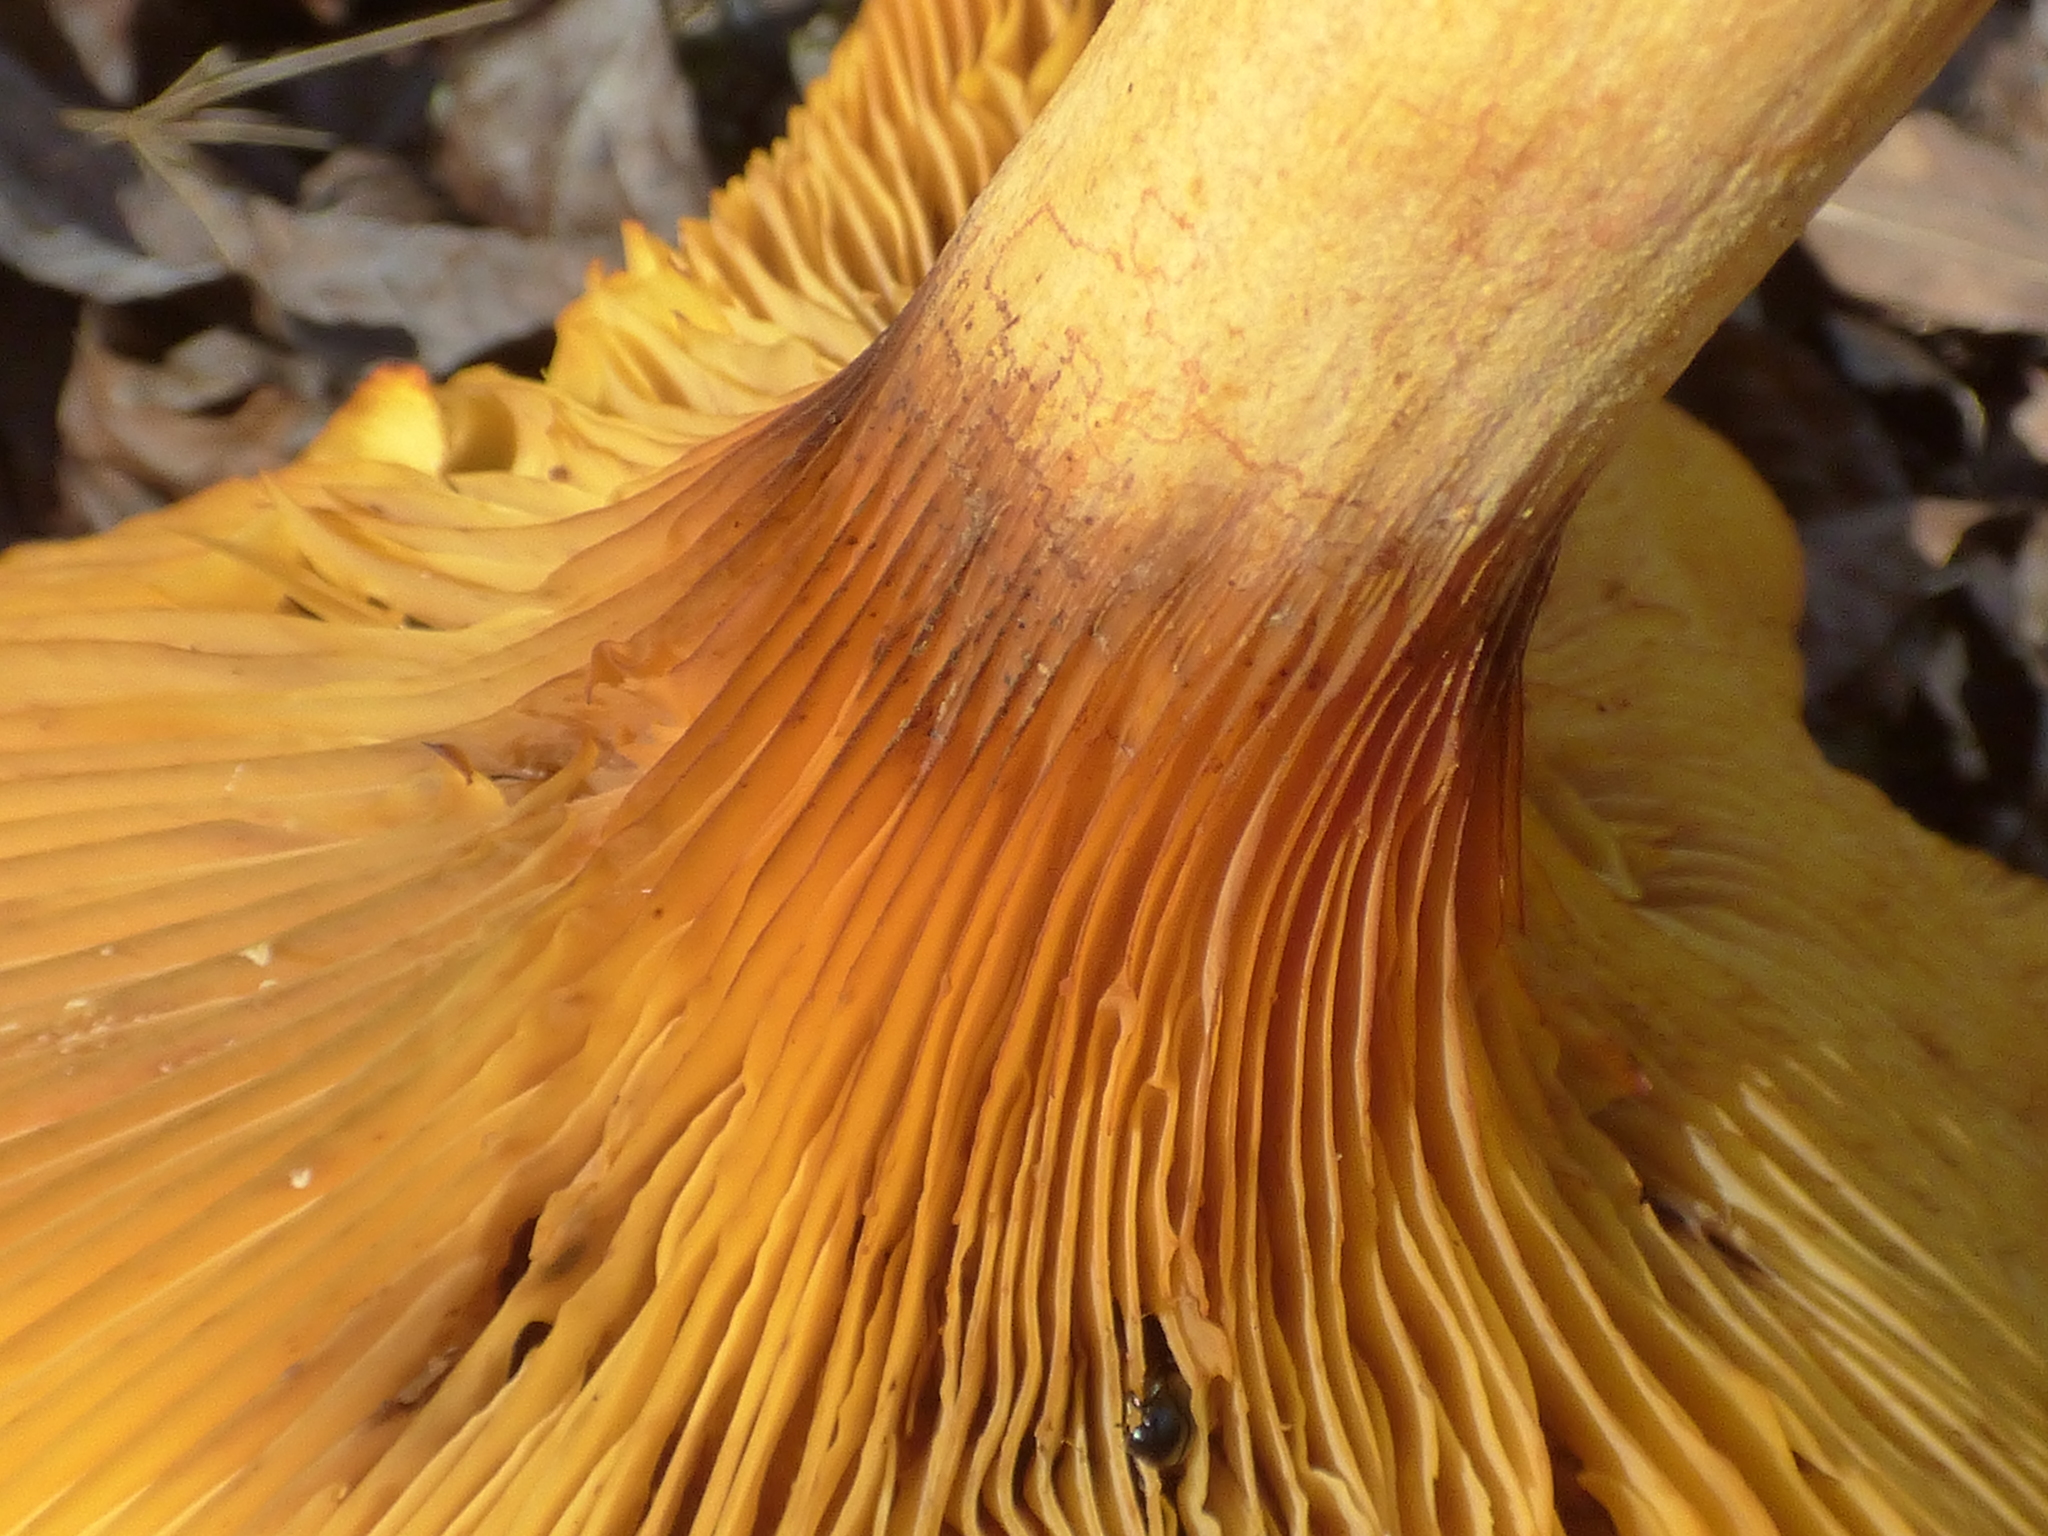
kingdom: Fungi
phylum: Basidiomycota
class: Agaricomycetes
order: Agaricales
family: Omphalotaceae
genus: Omphalotus
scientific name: Omphalotus illudens
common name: Jack o lantern
